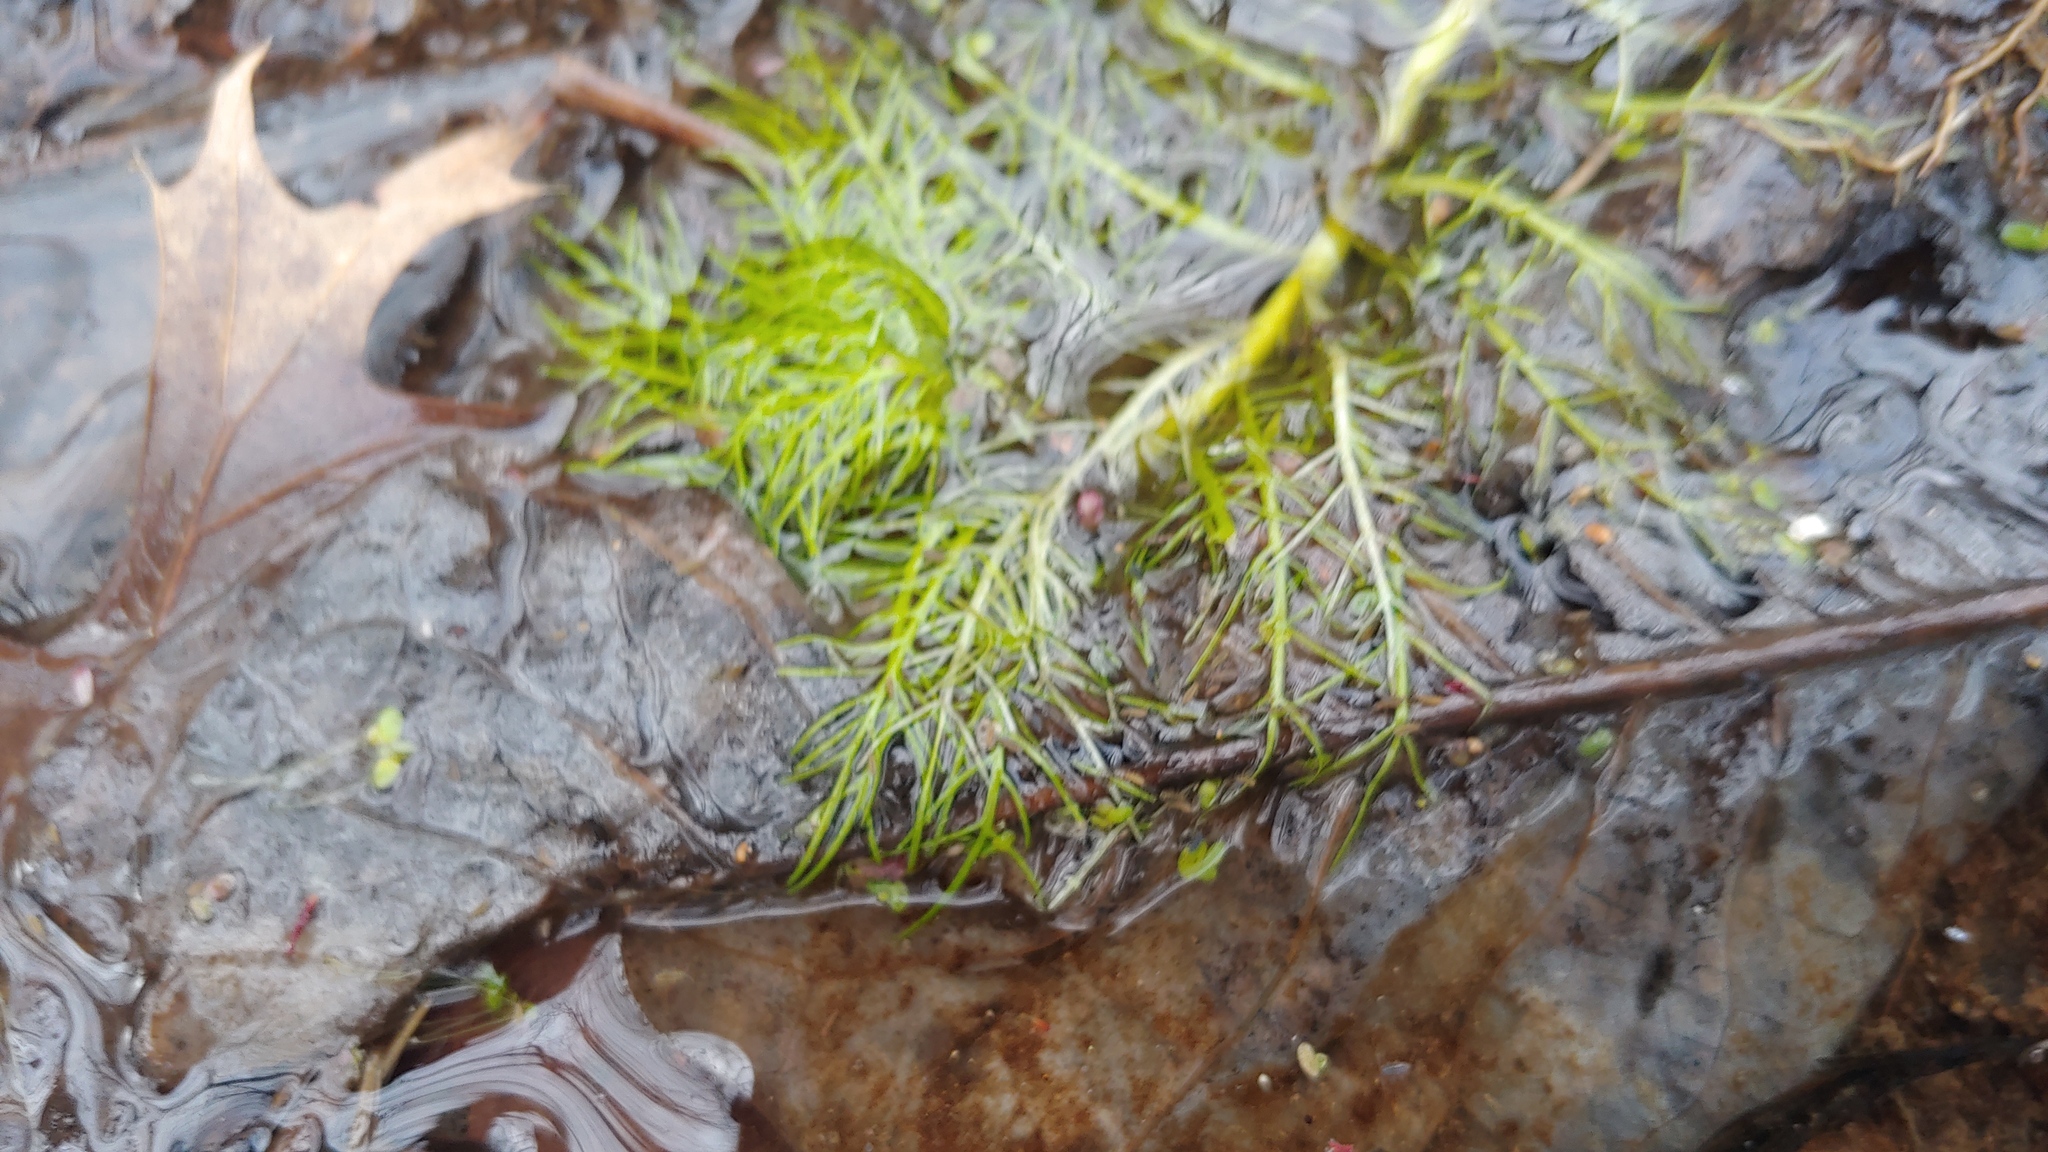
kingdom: Plantae
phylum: Tracheophyta
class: Magnoliopsida
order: Ericales
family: Primulaceae
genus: Hottonia
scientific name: Hottonia inflata
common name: American featherfoil
